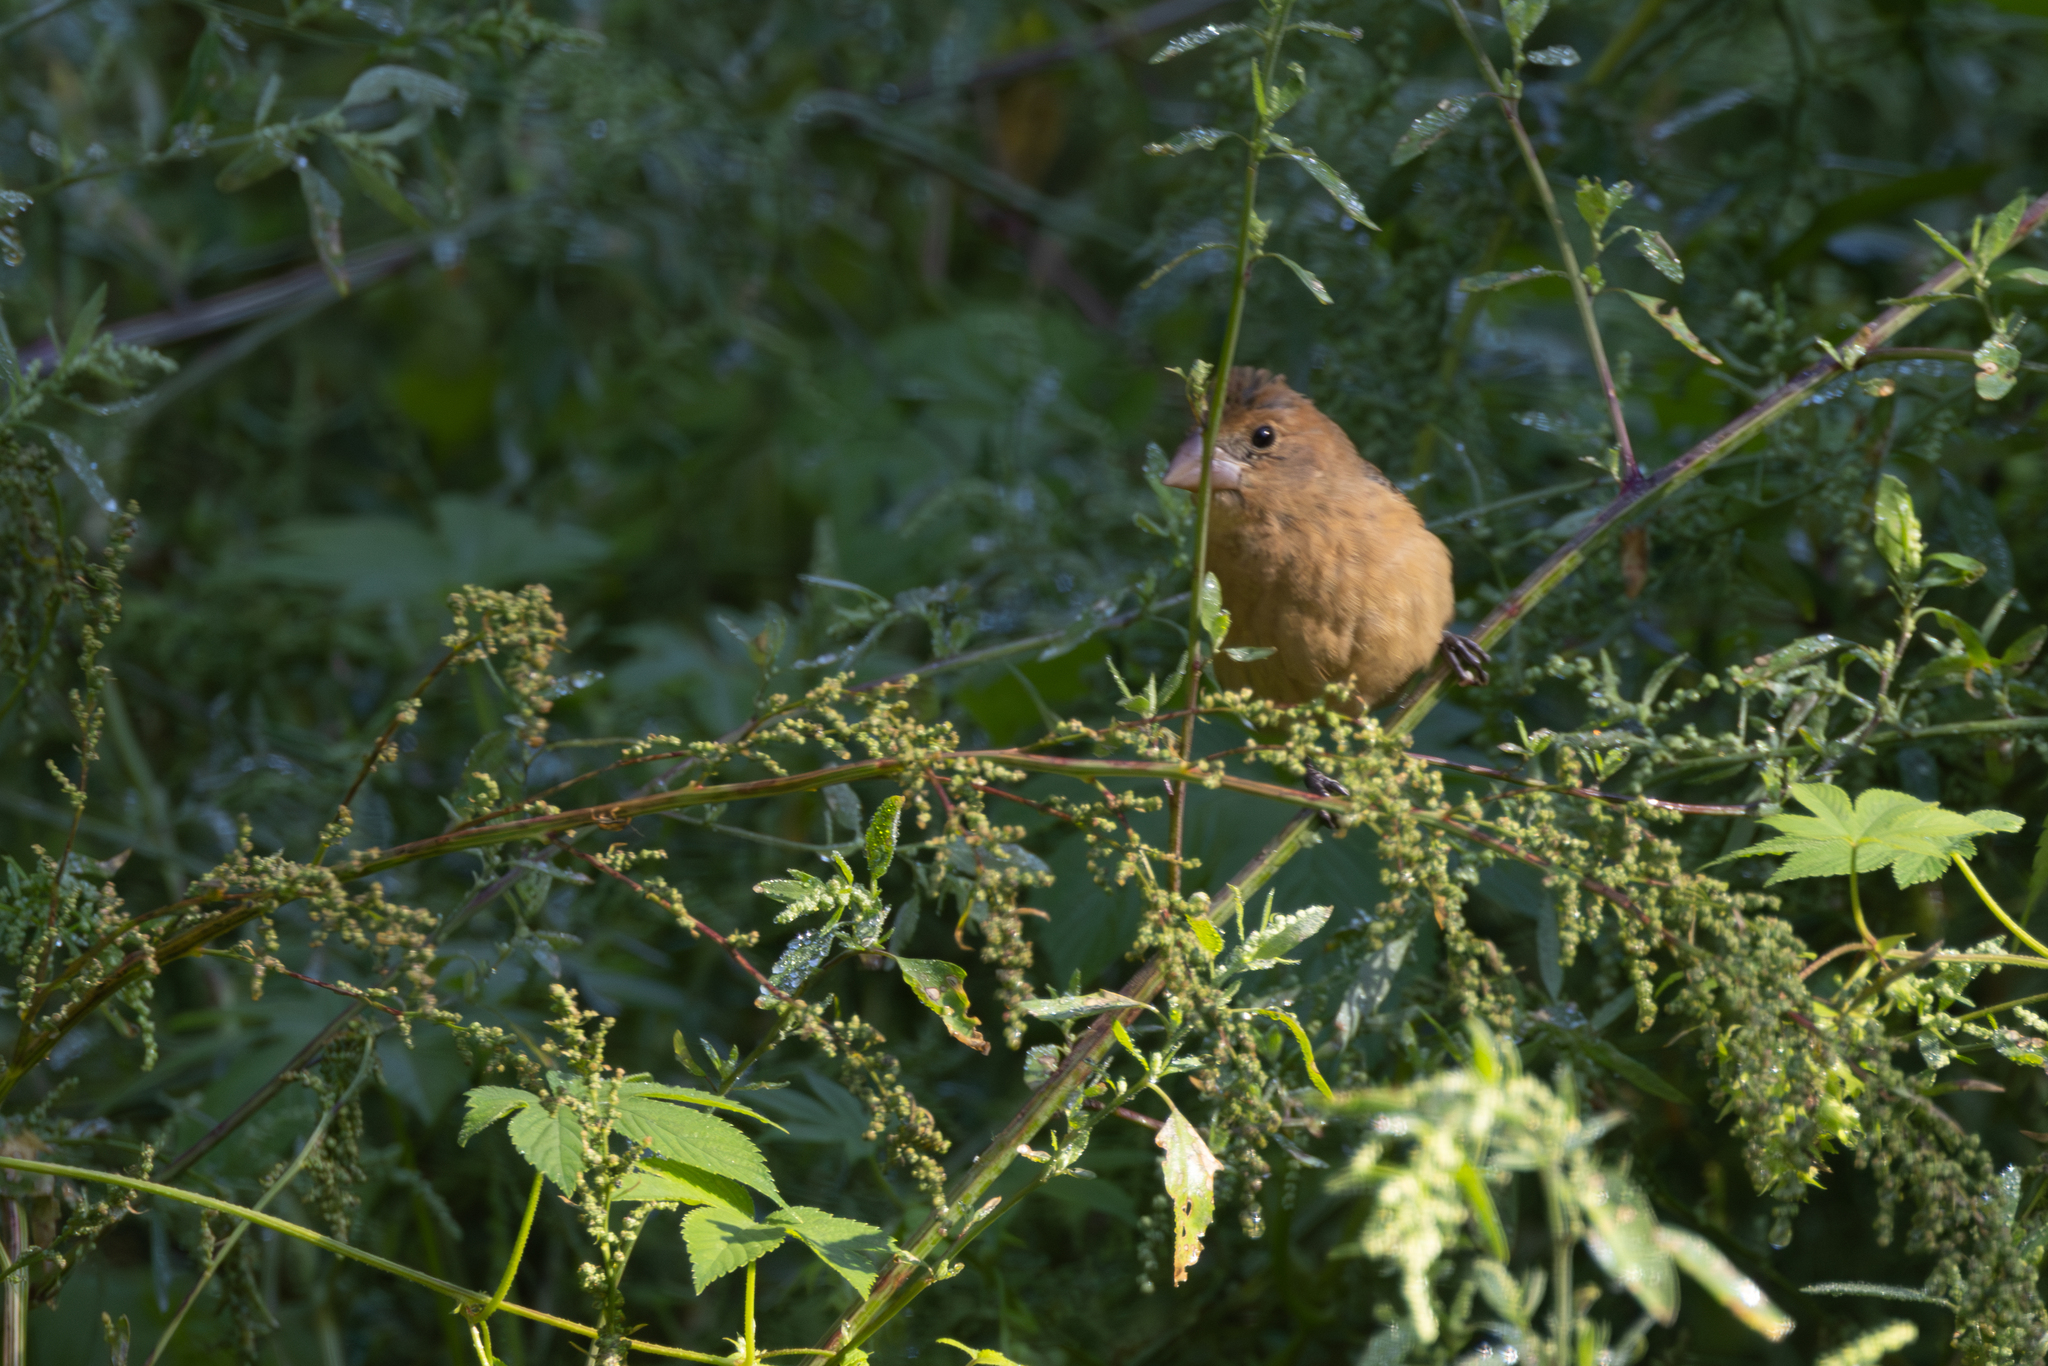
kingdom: Animalia
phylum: Chordata
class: Aves
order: Passeriformes
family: Cardinalidae
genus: Passerina
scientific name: Passerina caerulea
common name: Blue grosbeak
